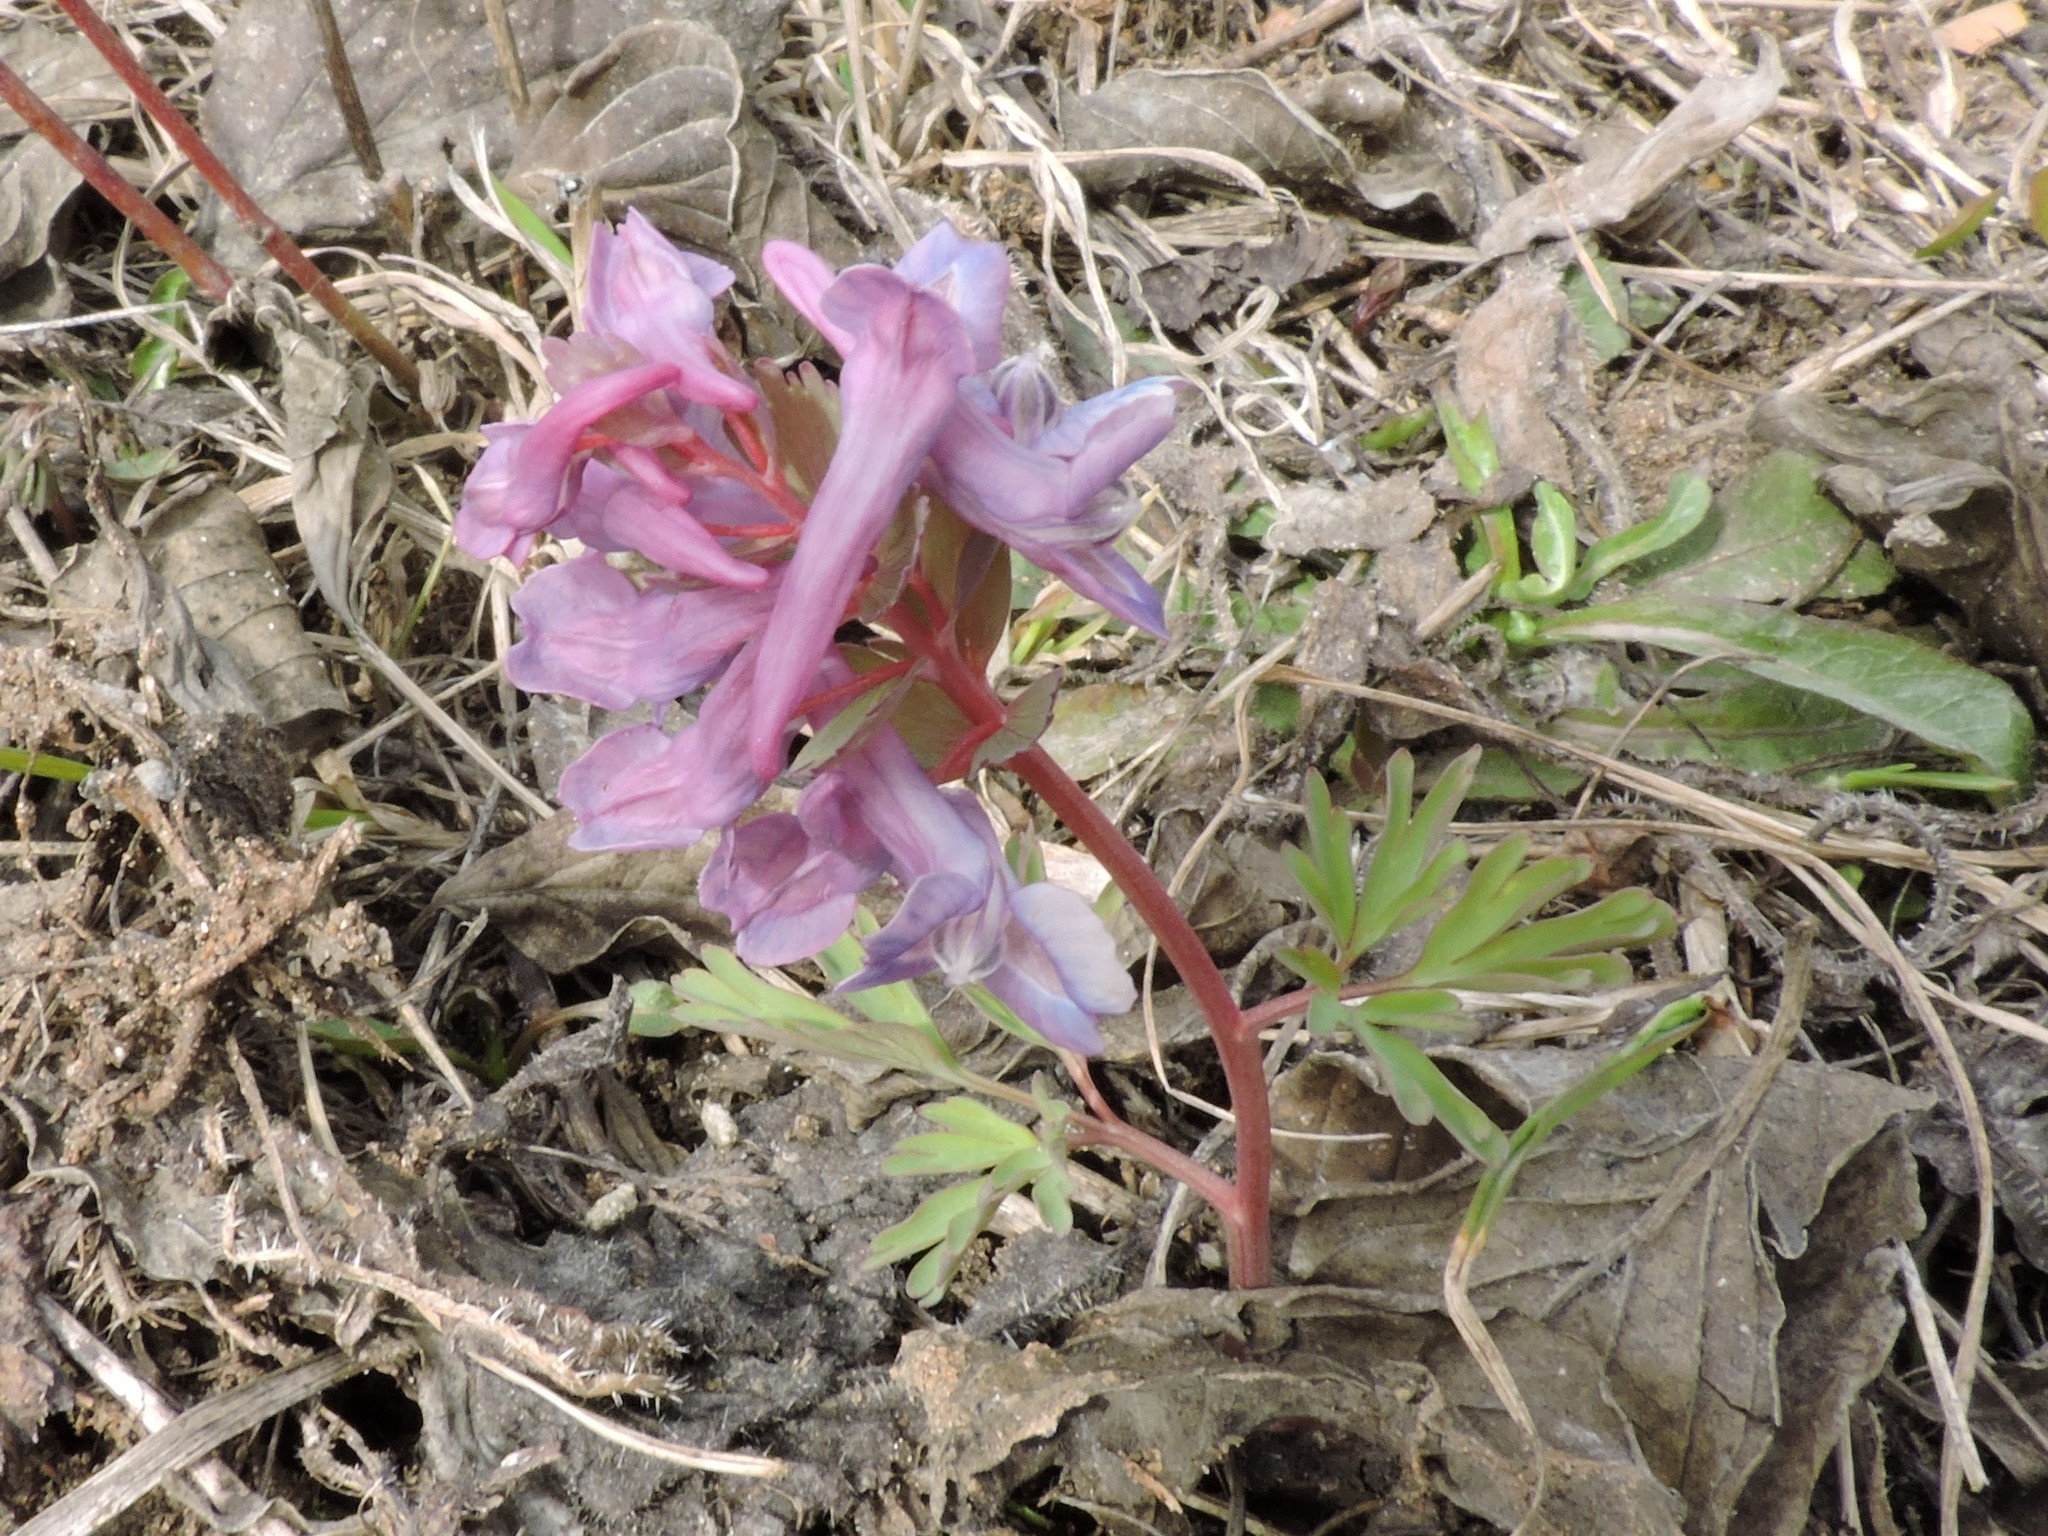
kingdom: Plantae
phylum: Tracheophyta
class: Magnoliopsida
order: Ranunculales
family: Papaveraceae
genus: Corydalis
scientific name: Corydalis solida
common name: Bird-in-a-bush
